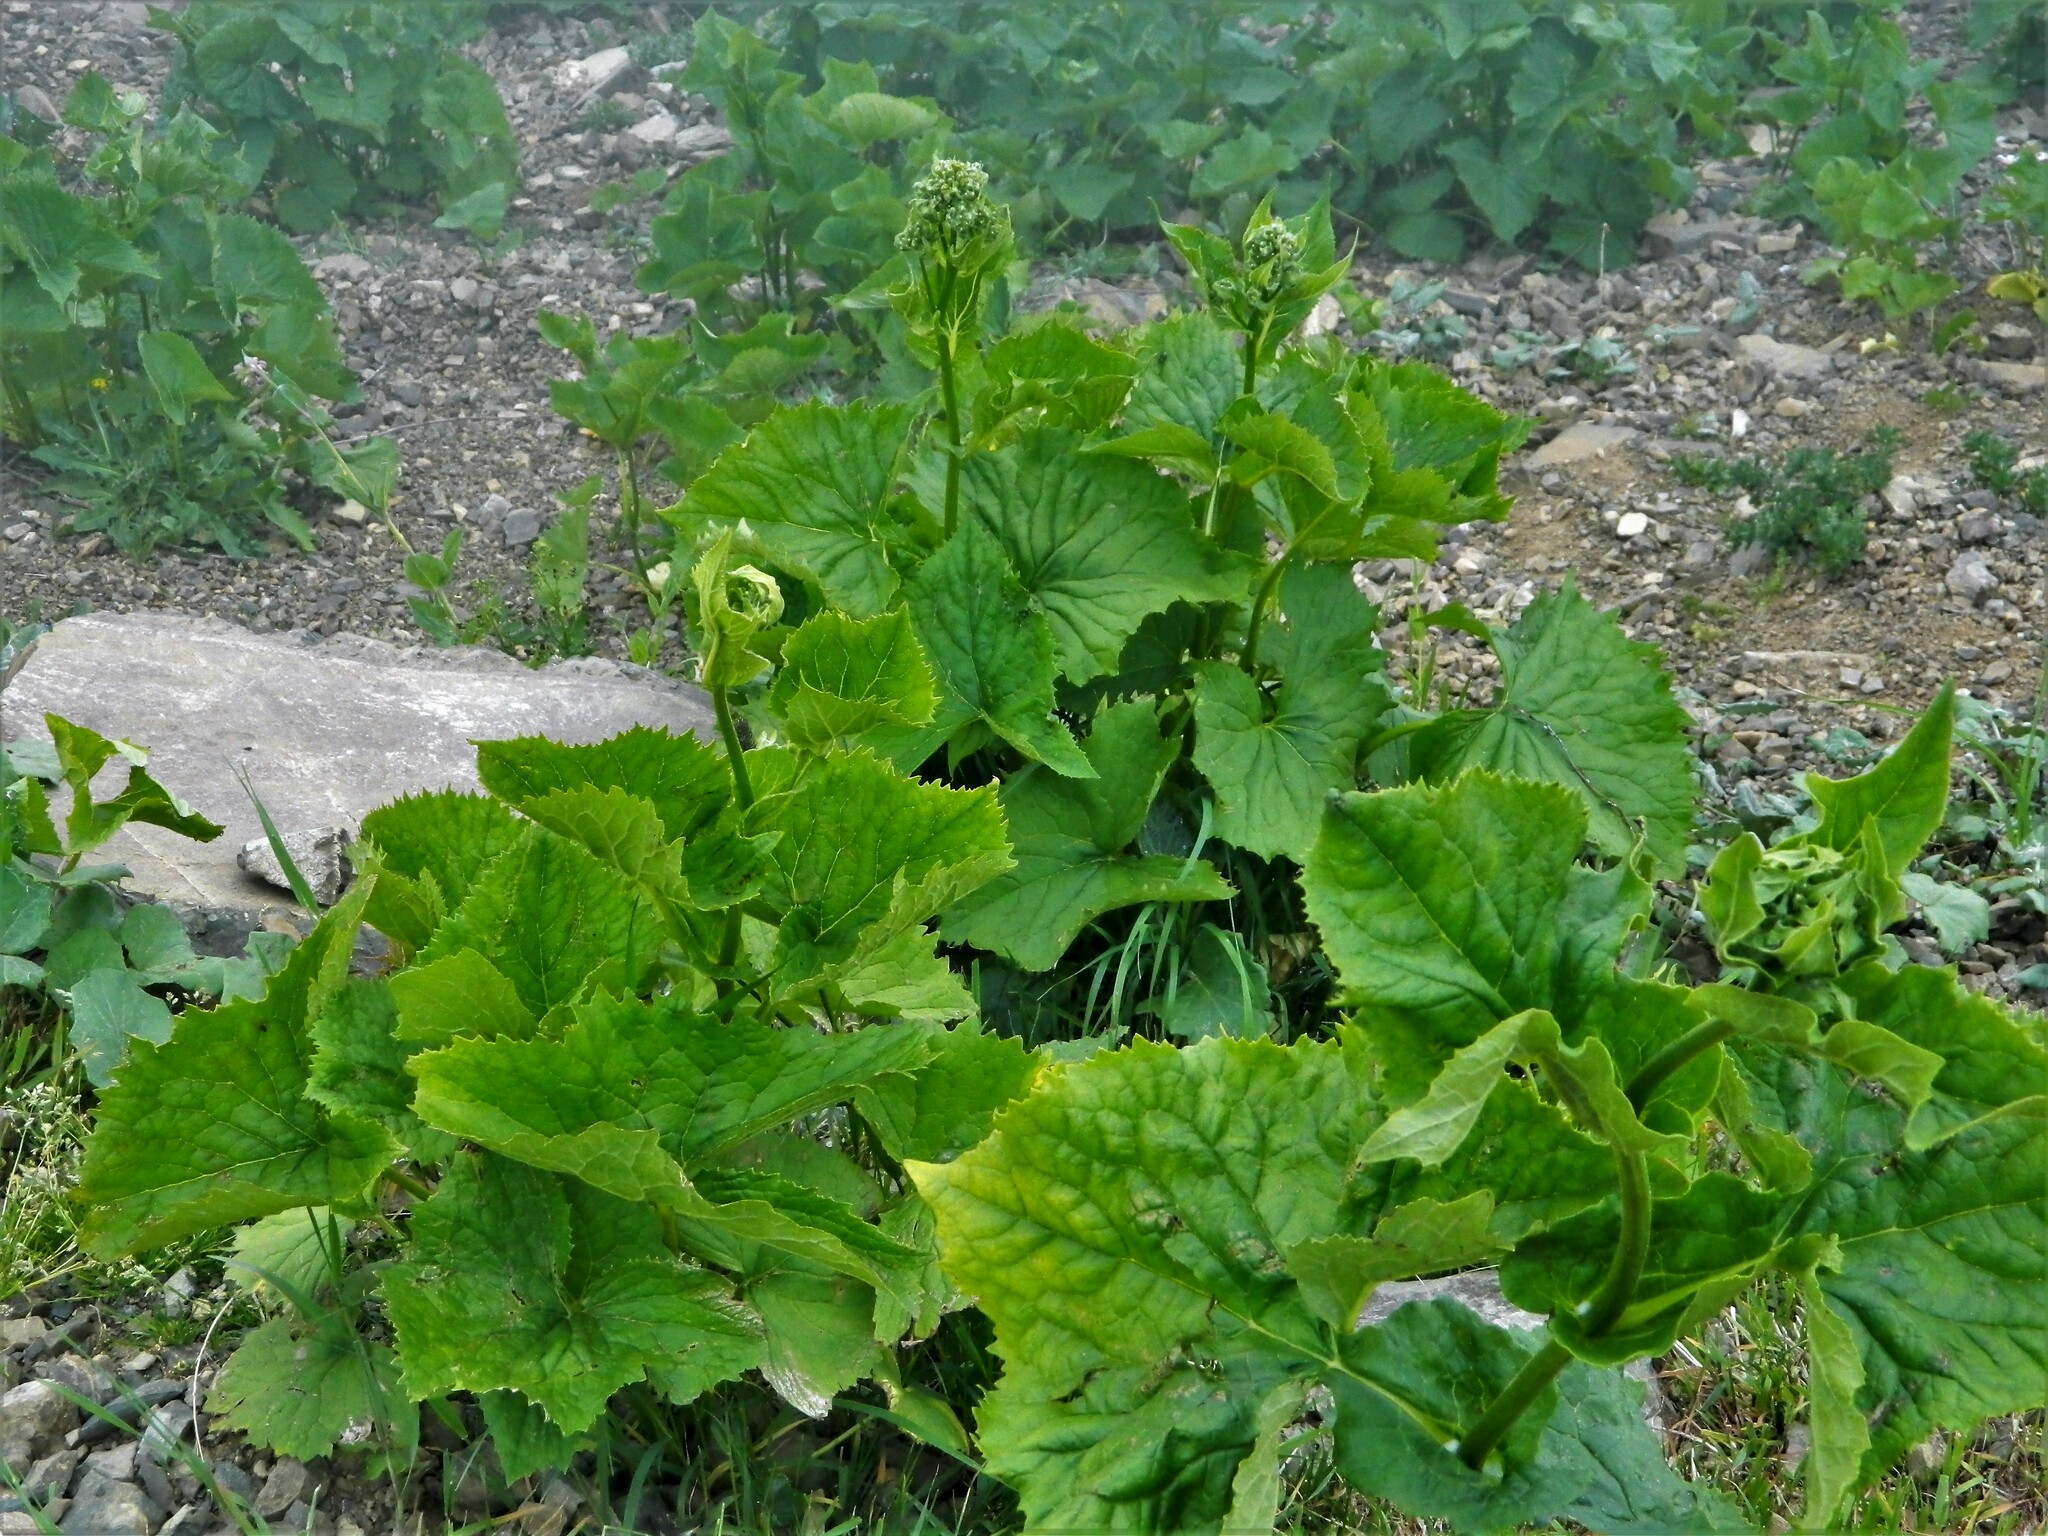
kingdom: Plantae
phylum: Tracheophyta
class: Magnoliopsida
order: Dipsacales
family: Caprifoliaceae
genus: Valeriana
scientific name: Valeriana alliariifolia
